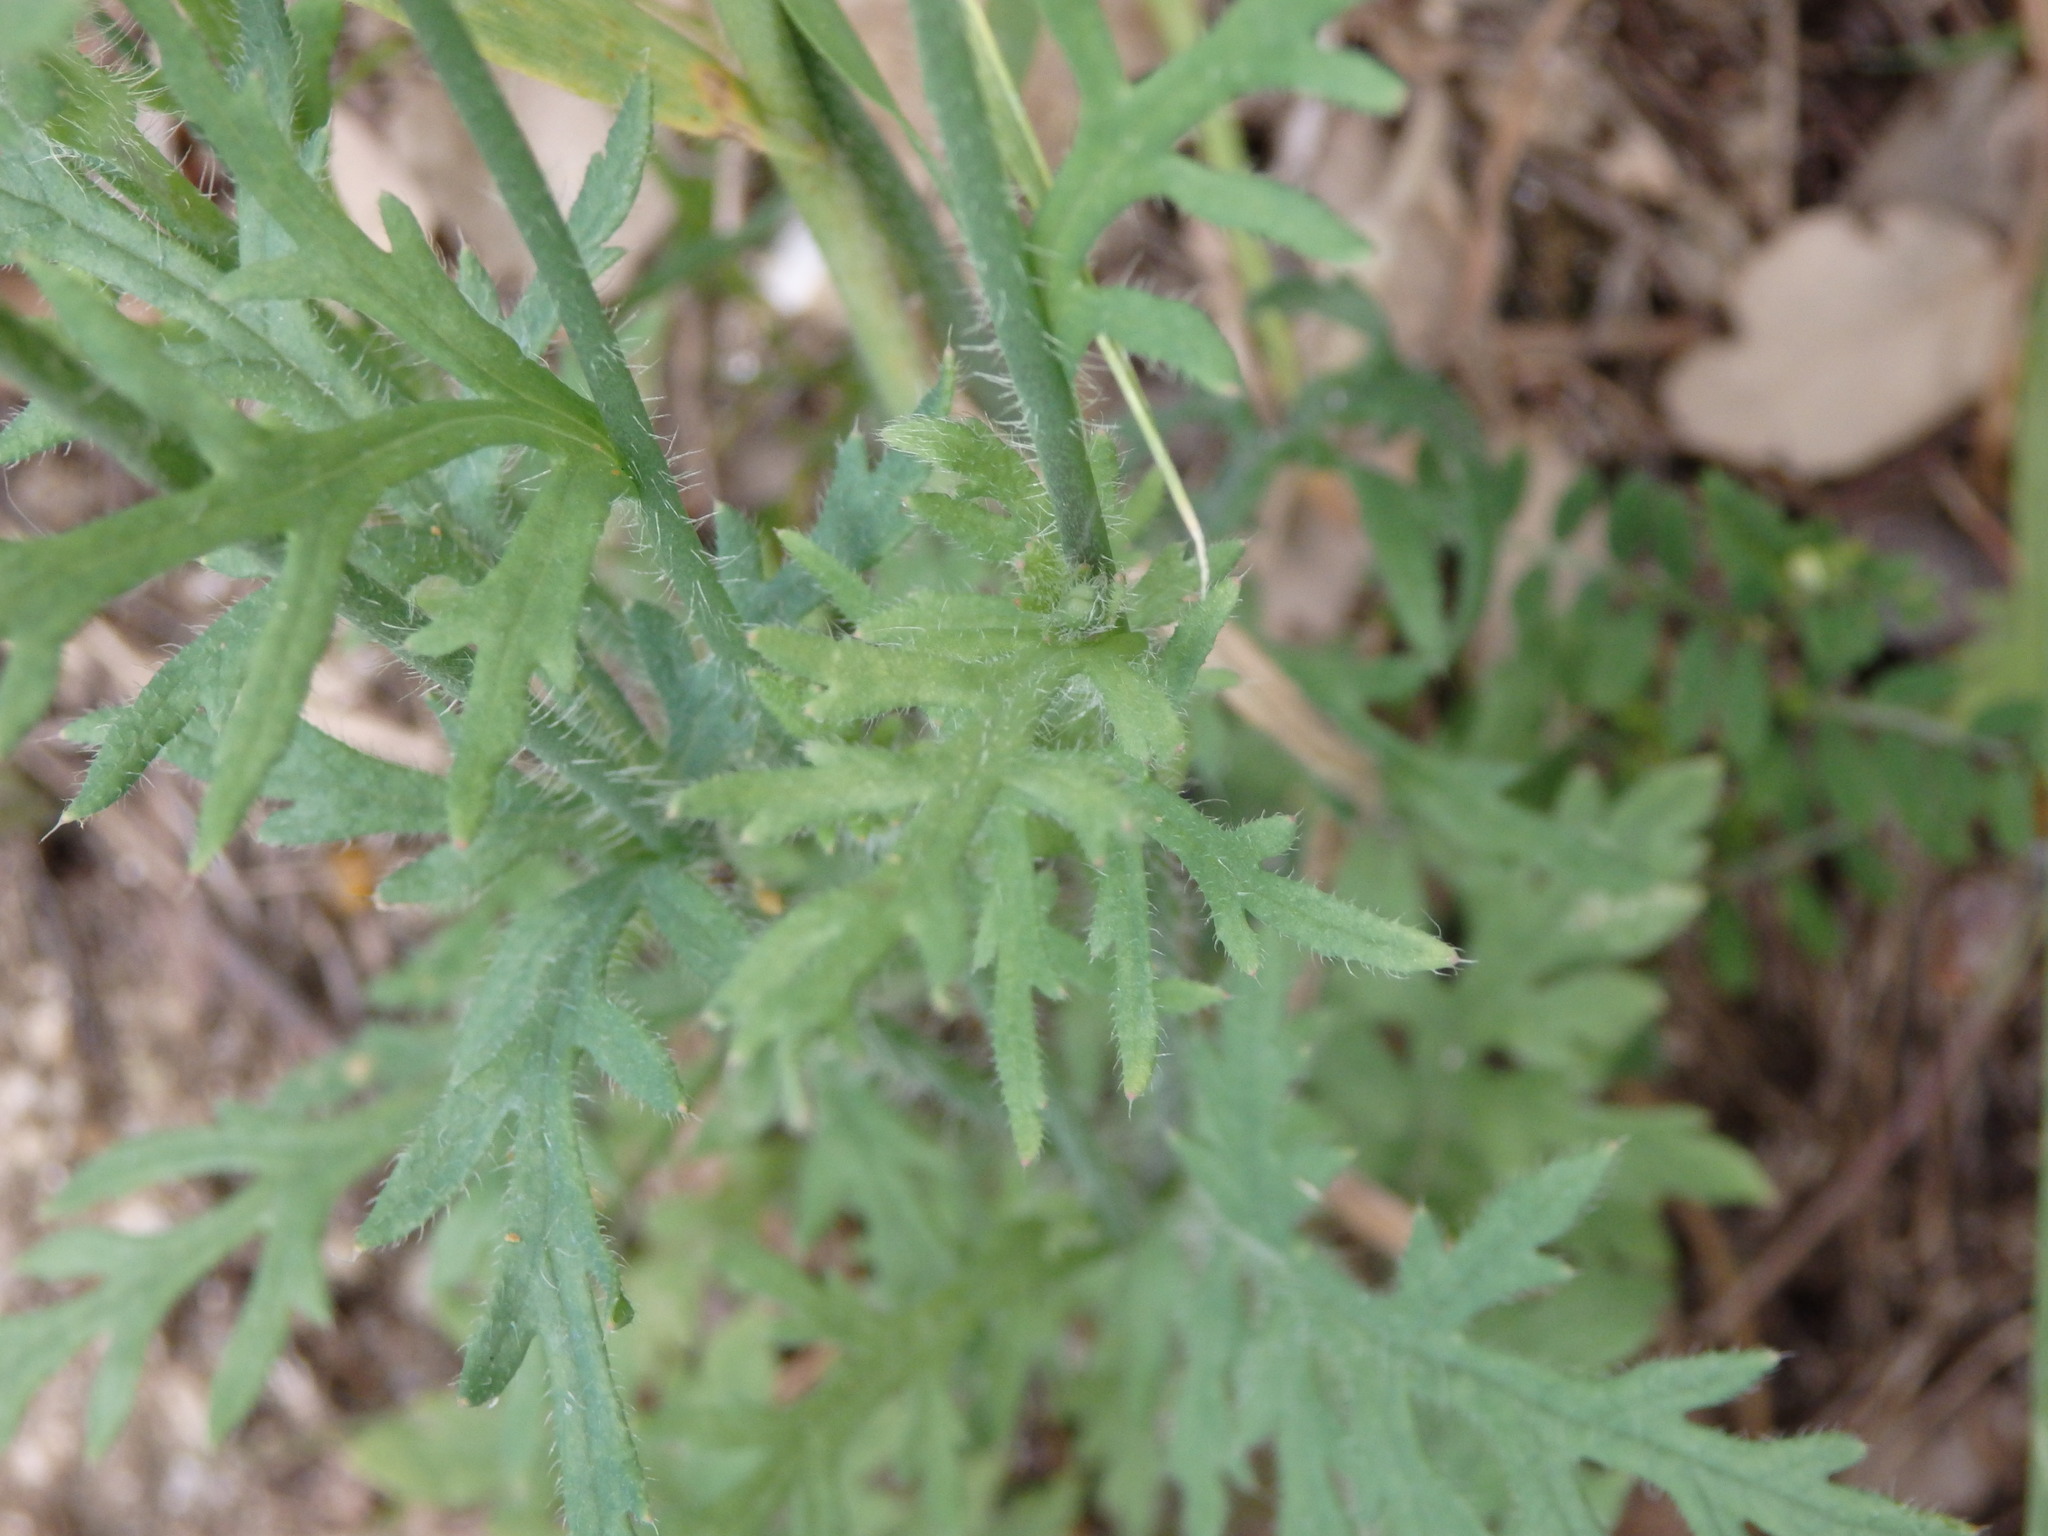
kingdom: Plantae
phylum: Tracheophyta
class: Magnoliopsida
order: Ranunculales
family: Papaveraceae
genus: Papaver
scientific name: Papaver dubium
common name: Long-headed poppy
